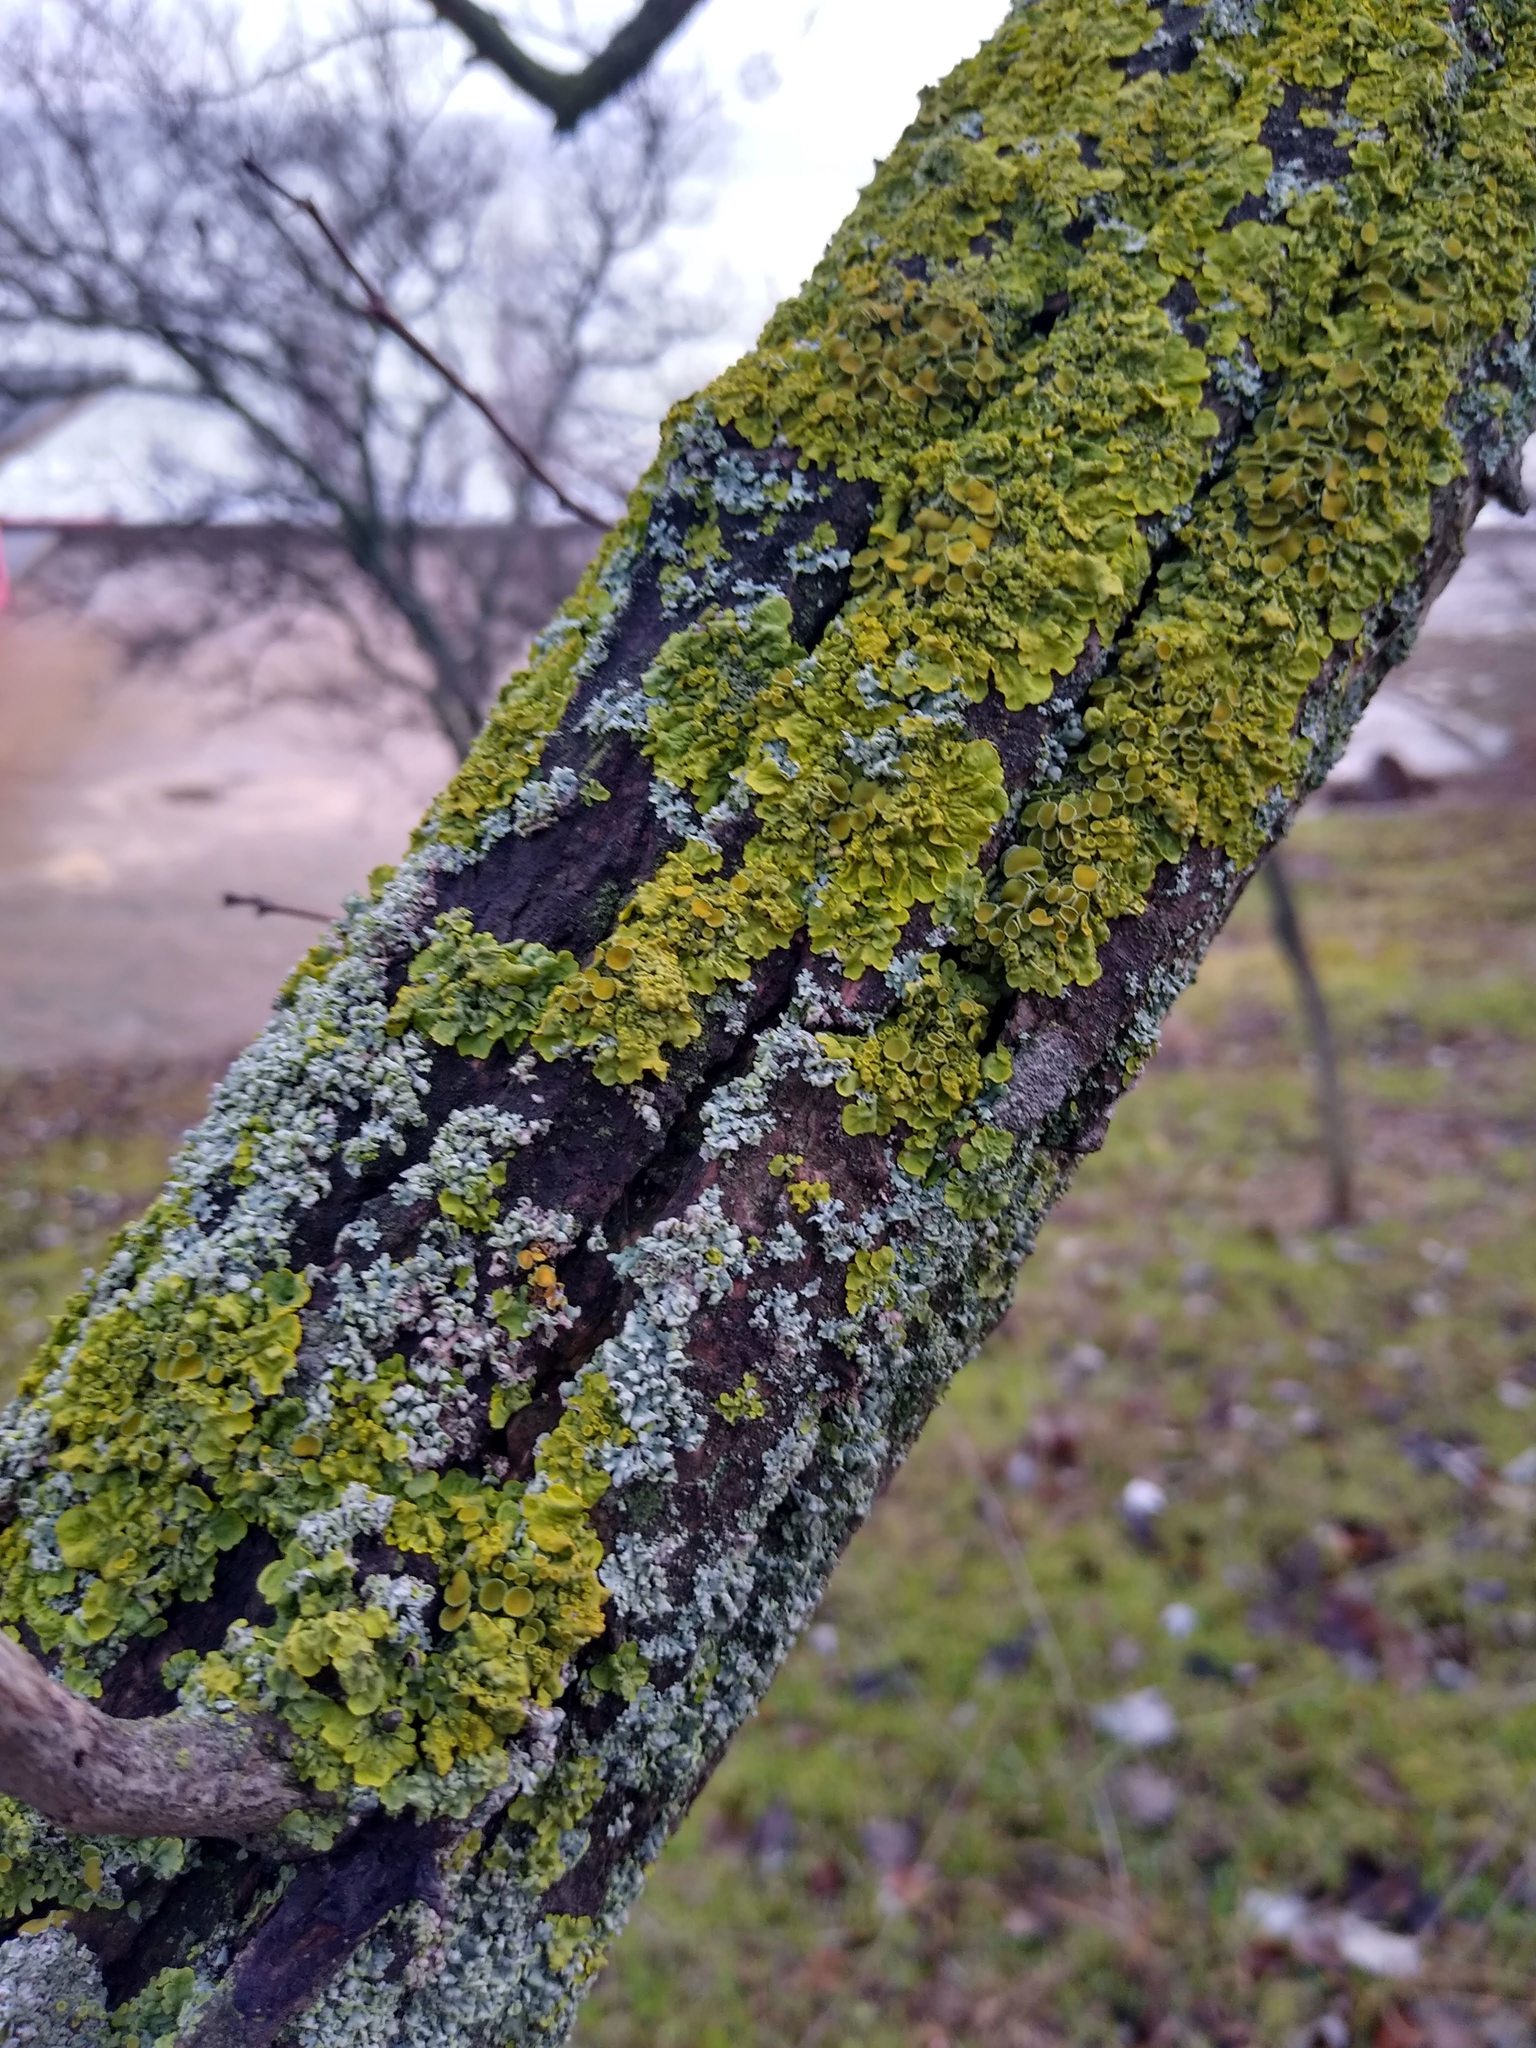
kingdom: Fungi
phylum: Ascomycota
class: Lecanoromycetes
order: Teloschistales
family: Teloschistaceae
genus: Xanthoria
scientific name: Xanthoria parietina
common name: Common orange lichen
